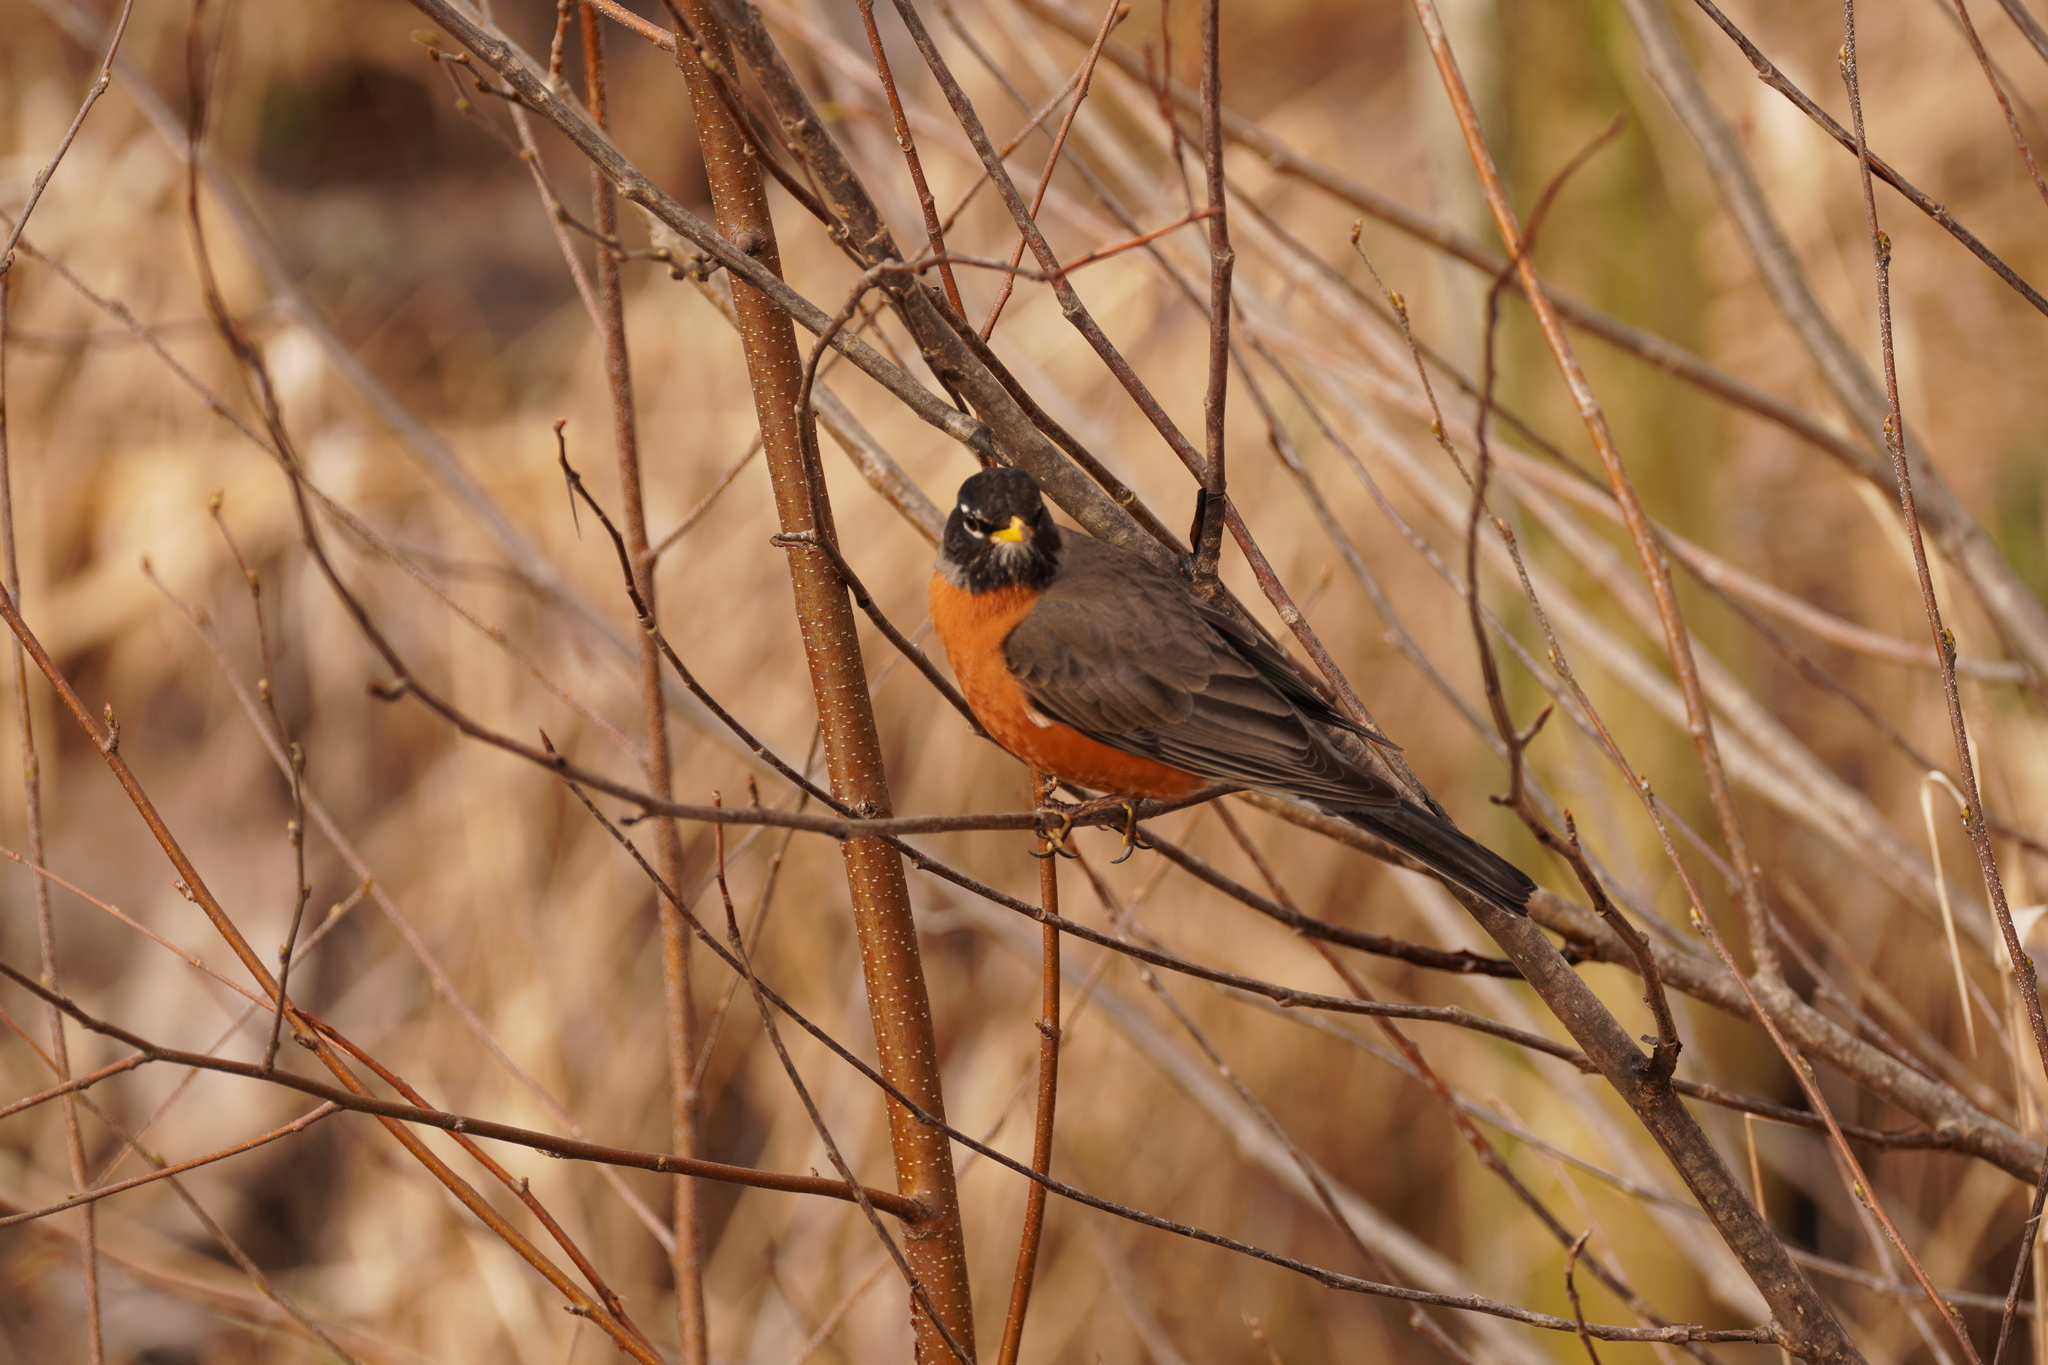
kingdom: Animalia
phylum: Chordata
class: Aves
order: Passeriformes
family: Turdidae
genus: Turdus
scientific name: Turdus migratorius
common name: American robin
